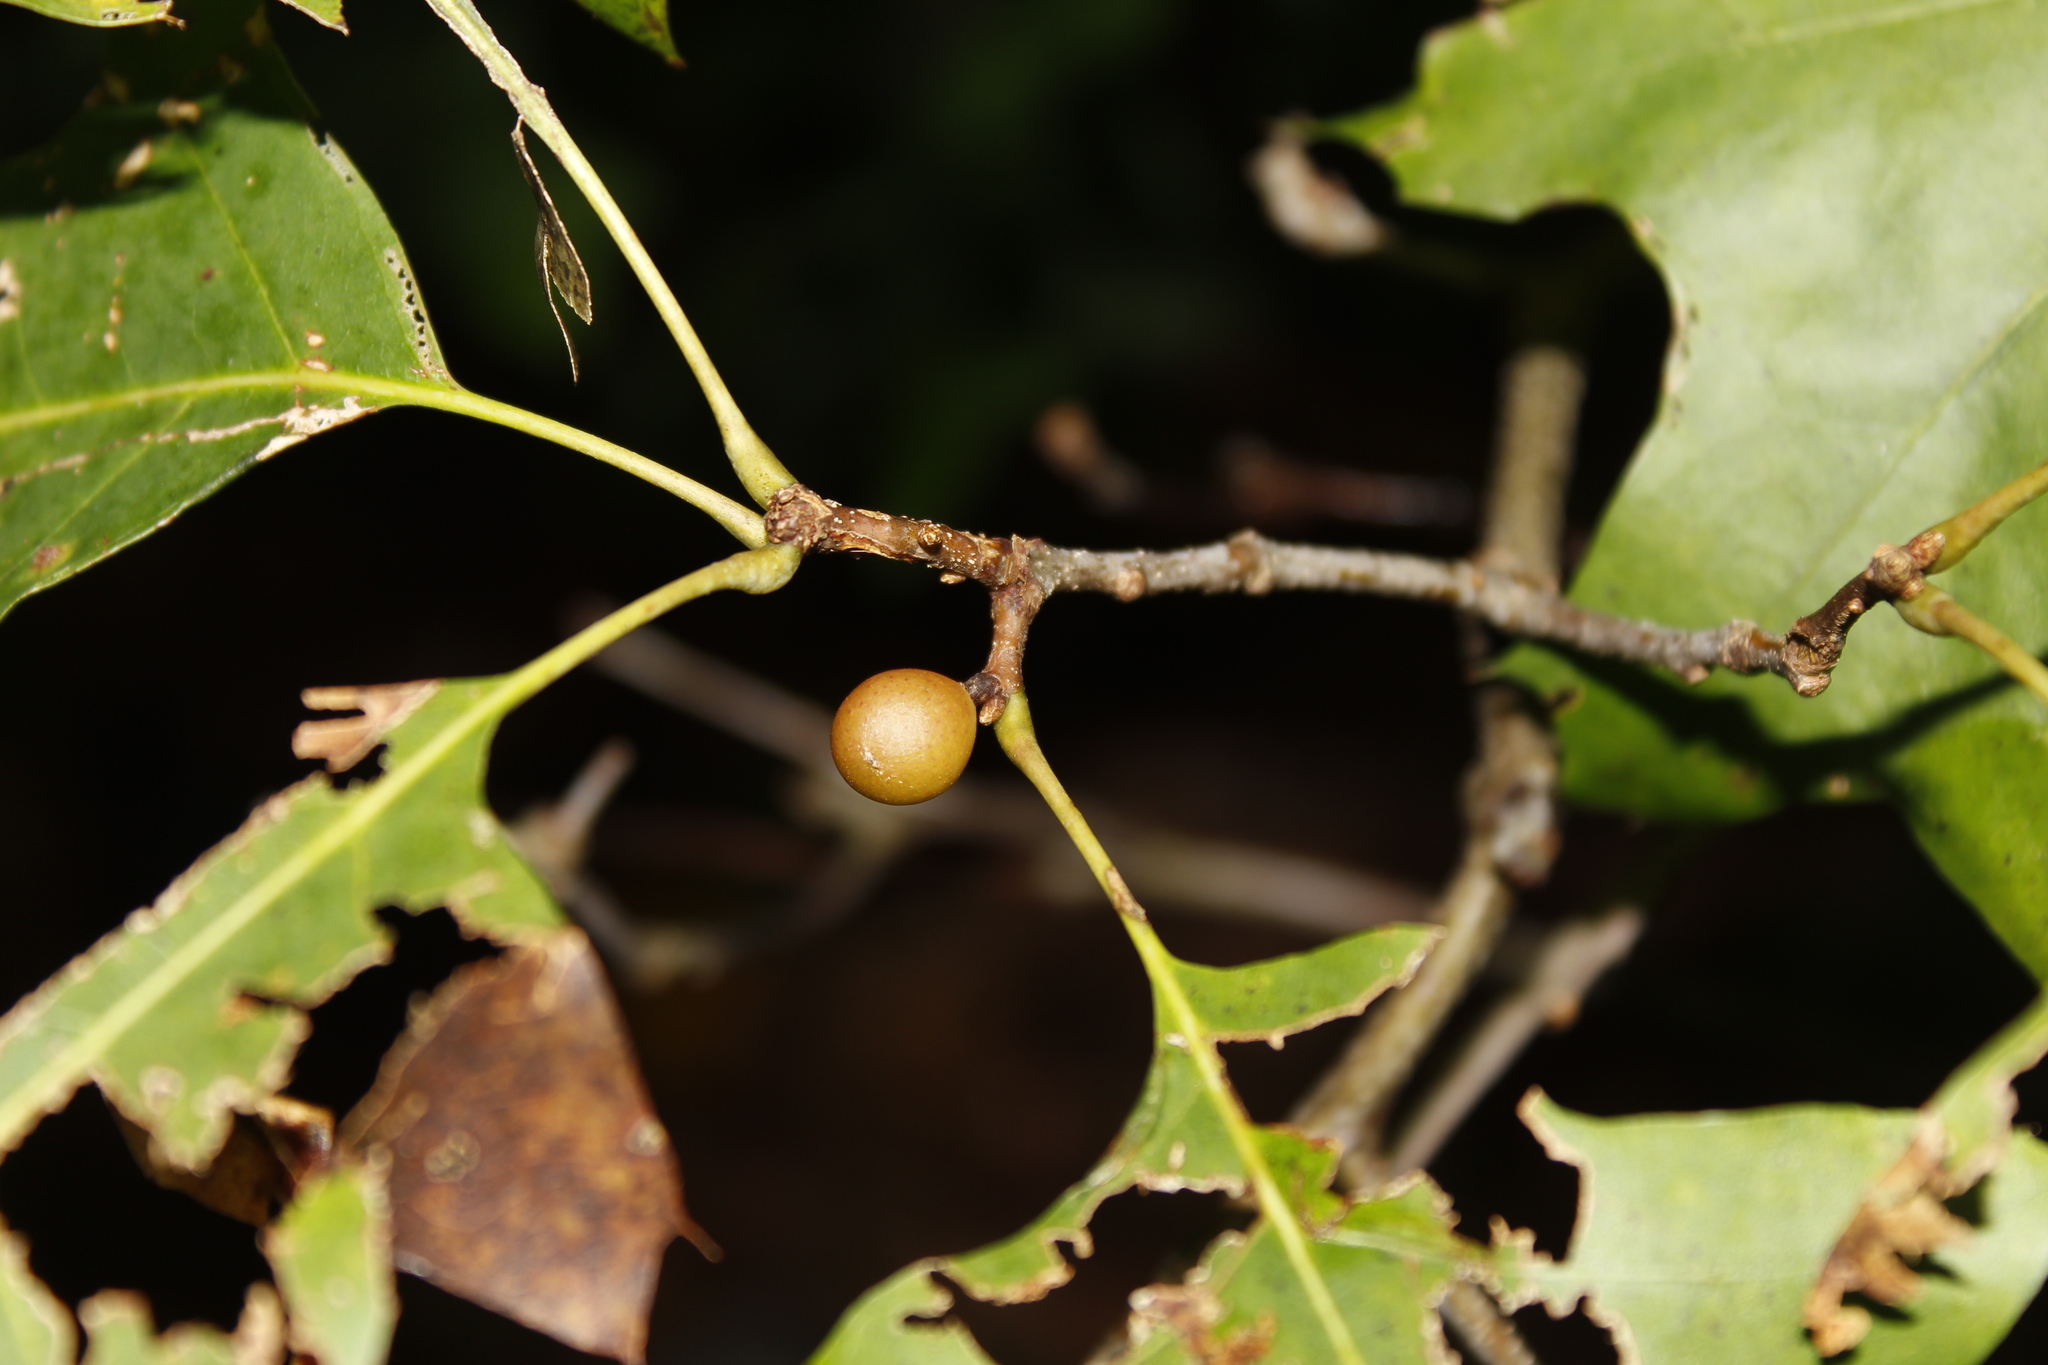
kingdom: Animalia
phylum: Arthropoda
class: Insecta
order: Hymenoptera
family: Cynipidae
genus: Amphibolips
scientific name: Amphibolips
